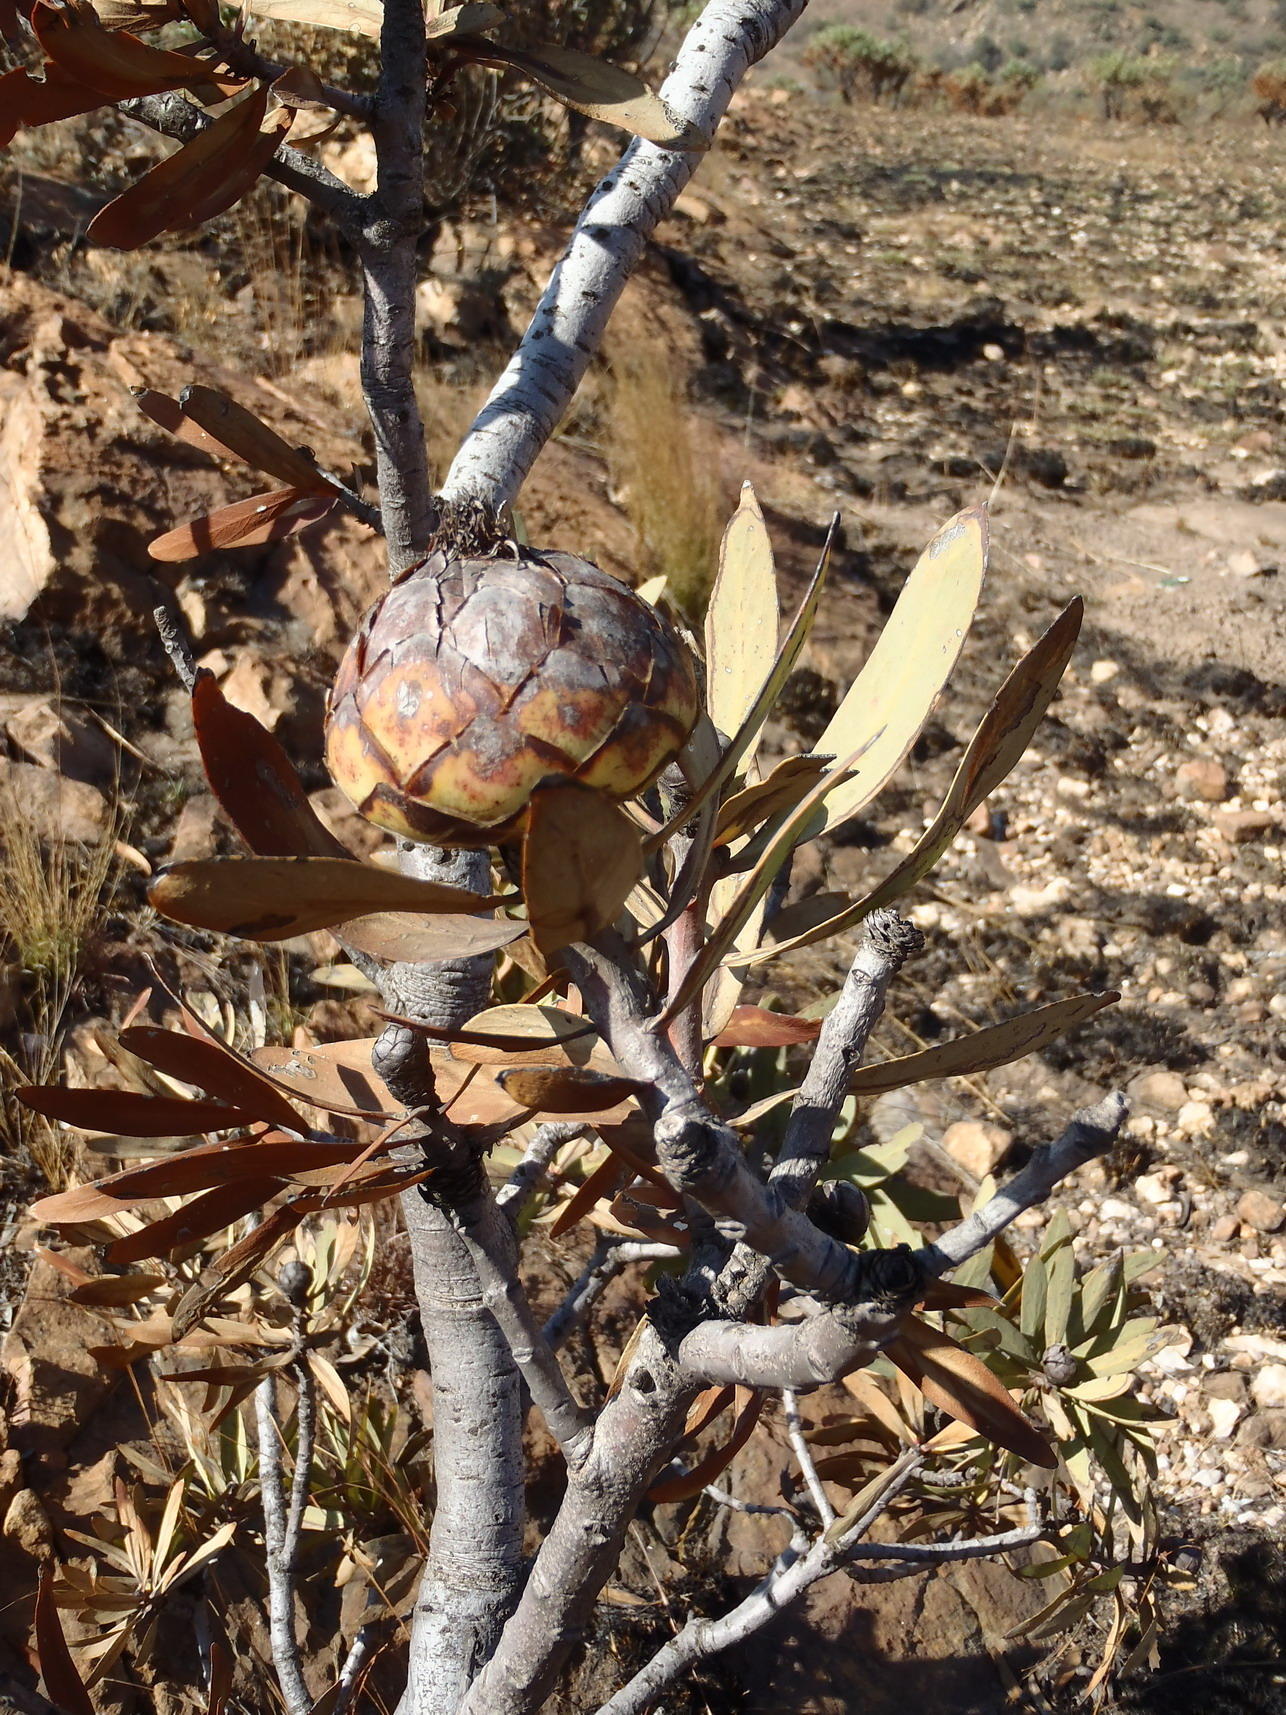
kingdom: Plantae
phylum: Tracheophyta
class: Magnoliopsida
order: Proteales
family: Proteaceae
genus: Protea
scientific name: Protea caffra
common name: Common sugarbush
